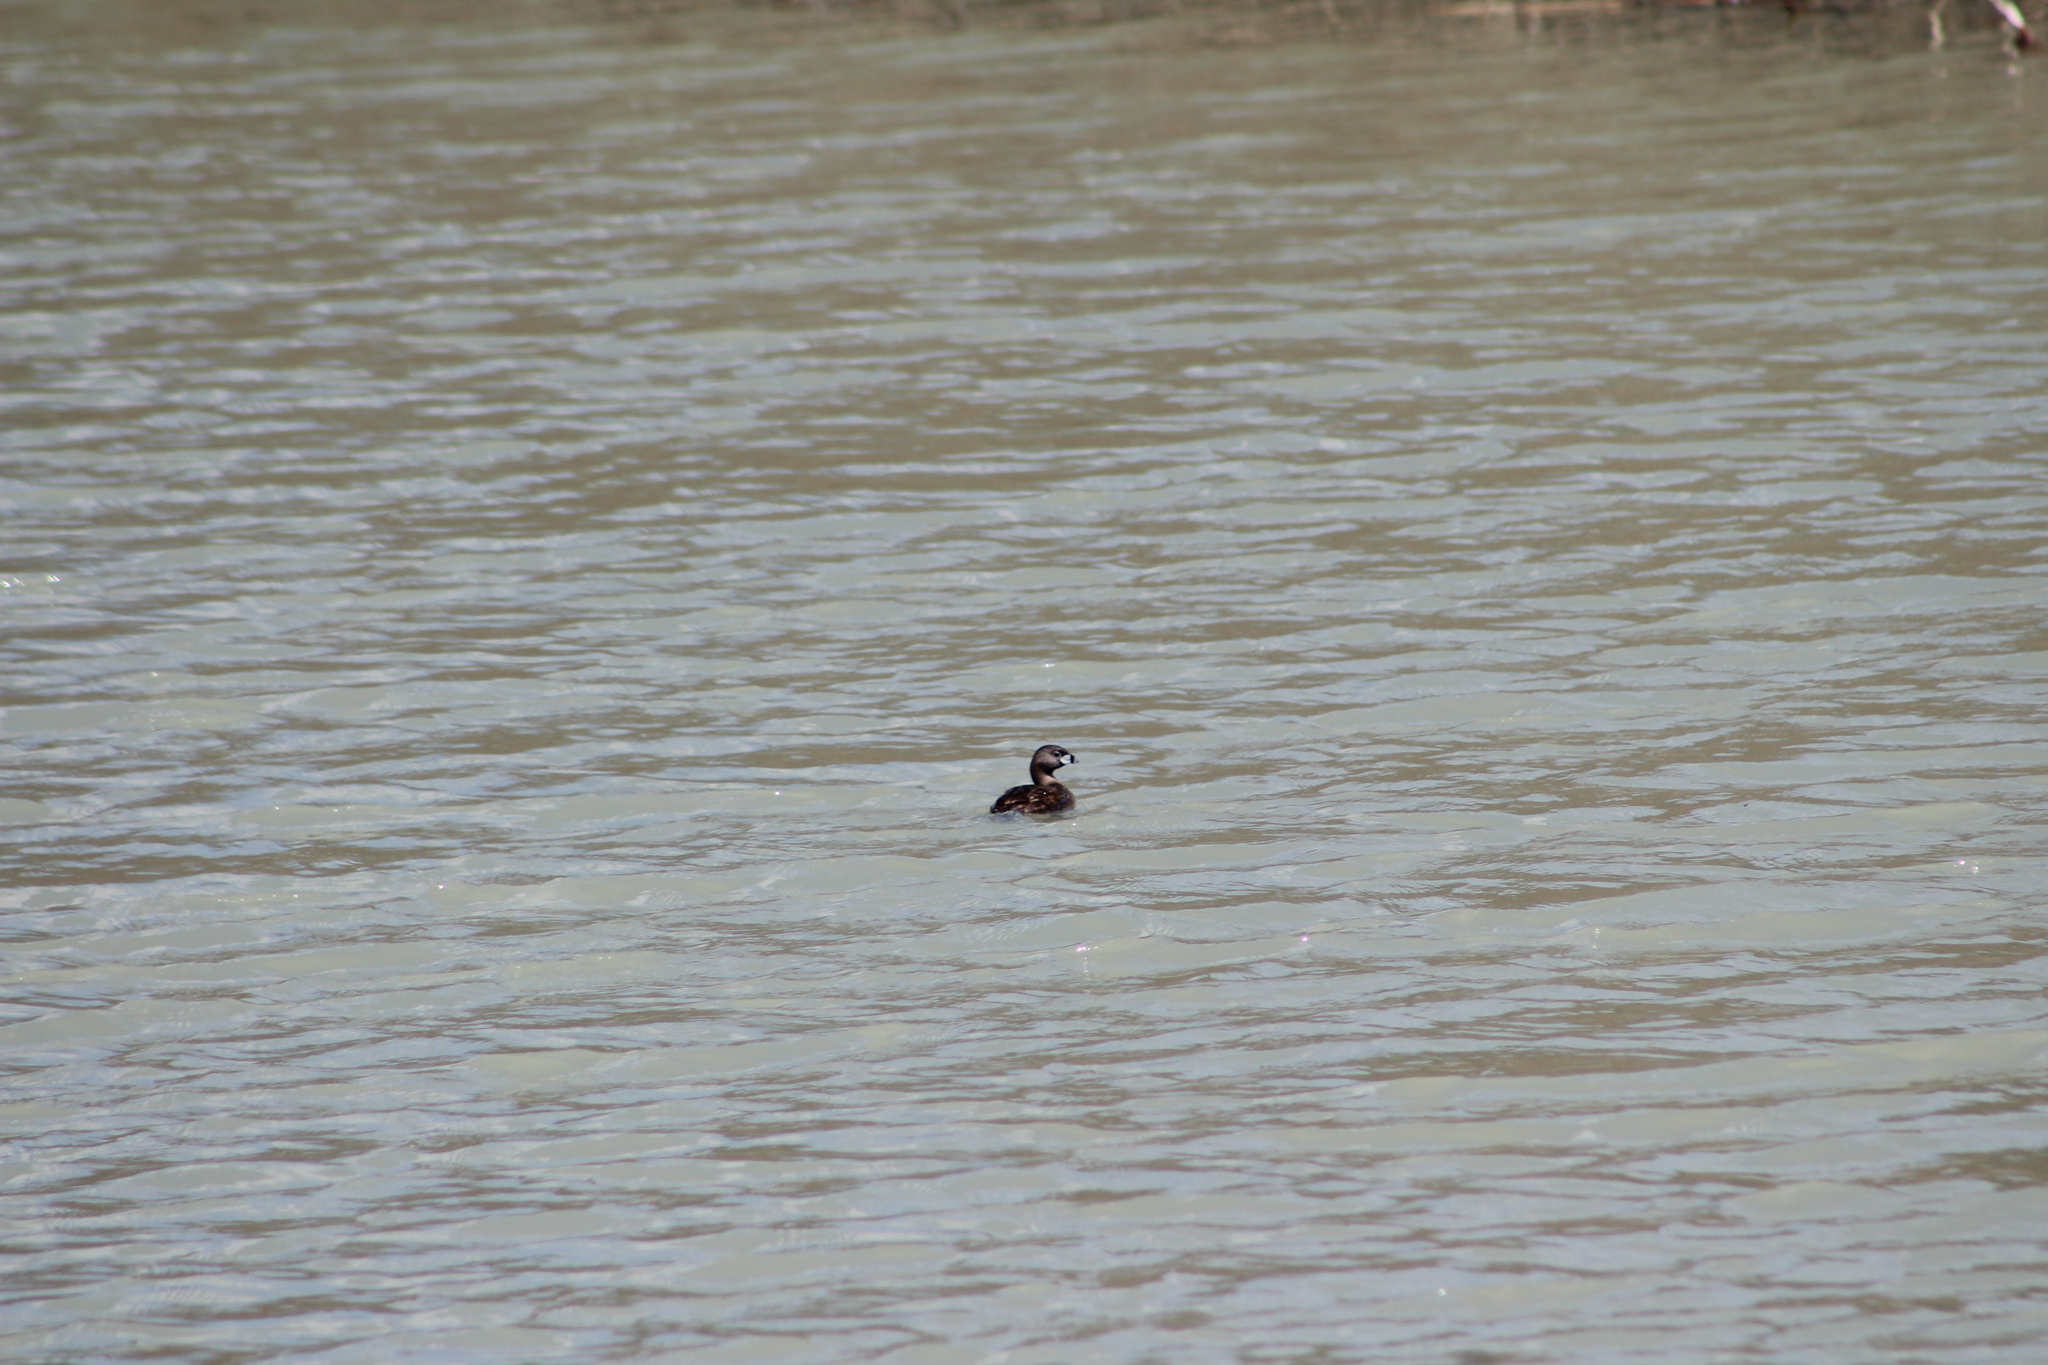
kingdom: Animalia
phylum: Chordata
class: Aves
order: Podicipediformes
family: Podicipedidae
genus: Podilymbus
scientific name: Podilymbus podiceps
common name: Pied-billed grebe
